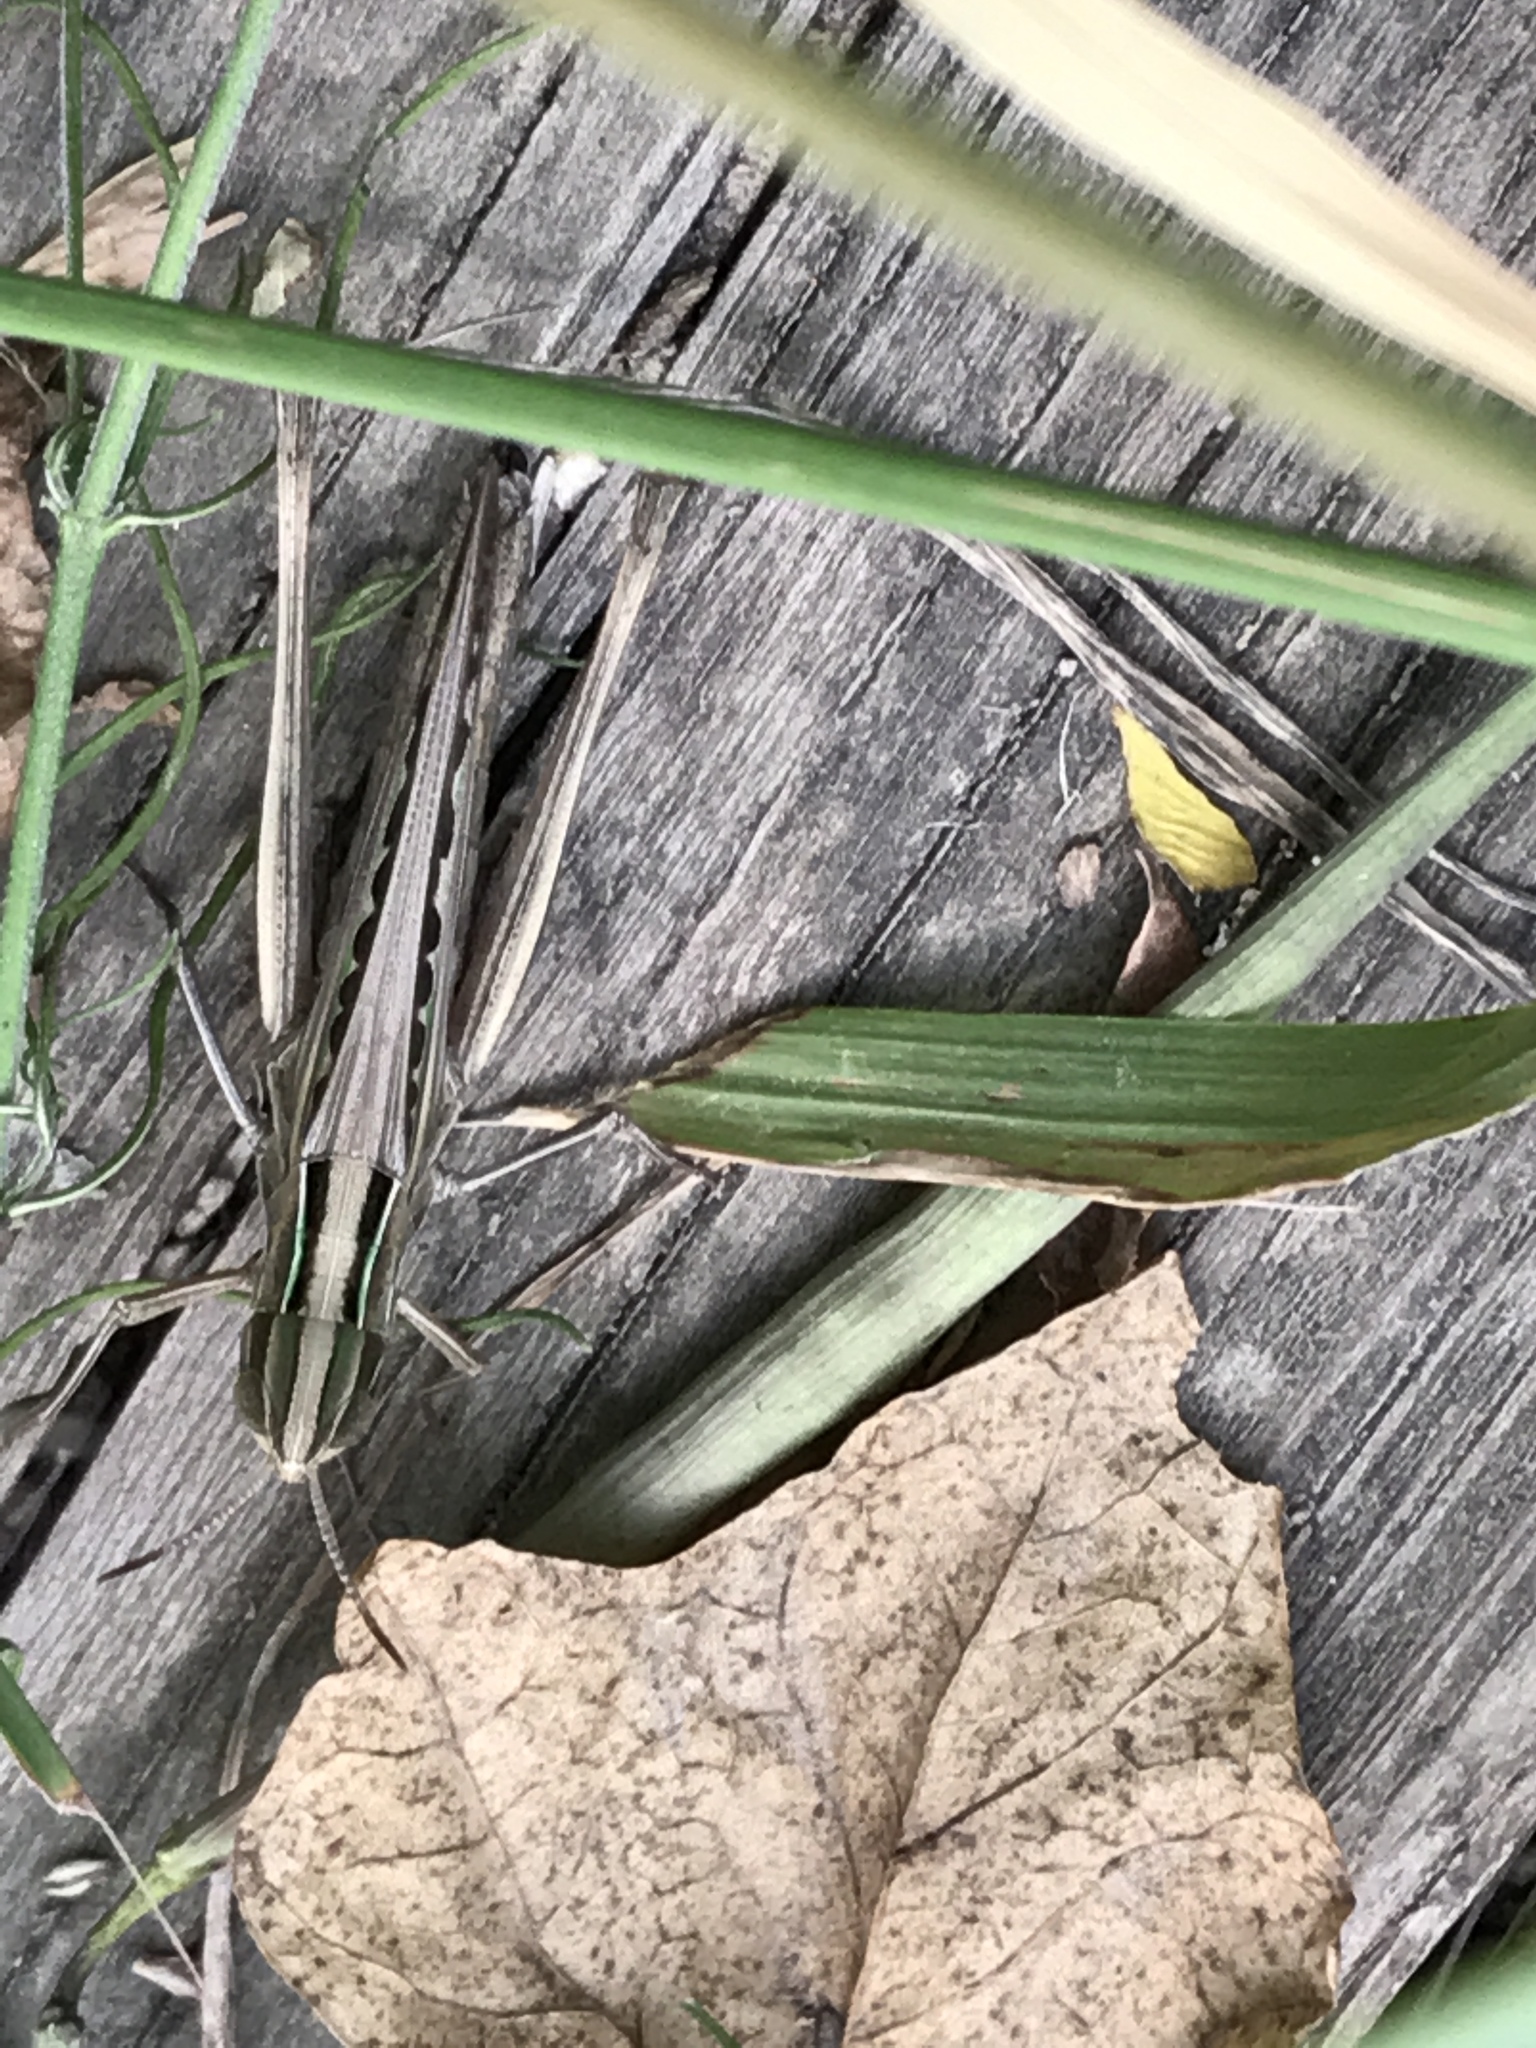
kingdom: Animalia
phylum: Arthropoda
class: Insecta
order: Orthoptera
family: Acrididae
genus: Syrbula
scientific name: Syrbula admirabilis
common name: Handsome grasshopper
